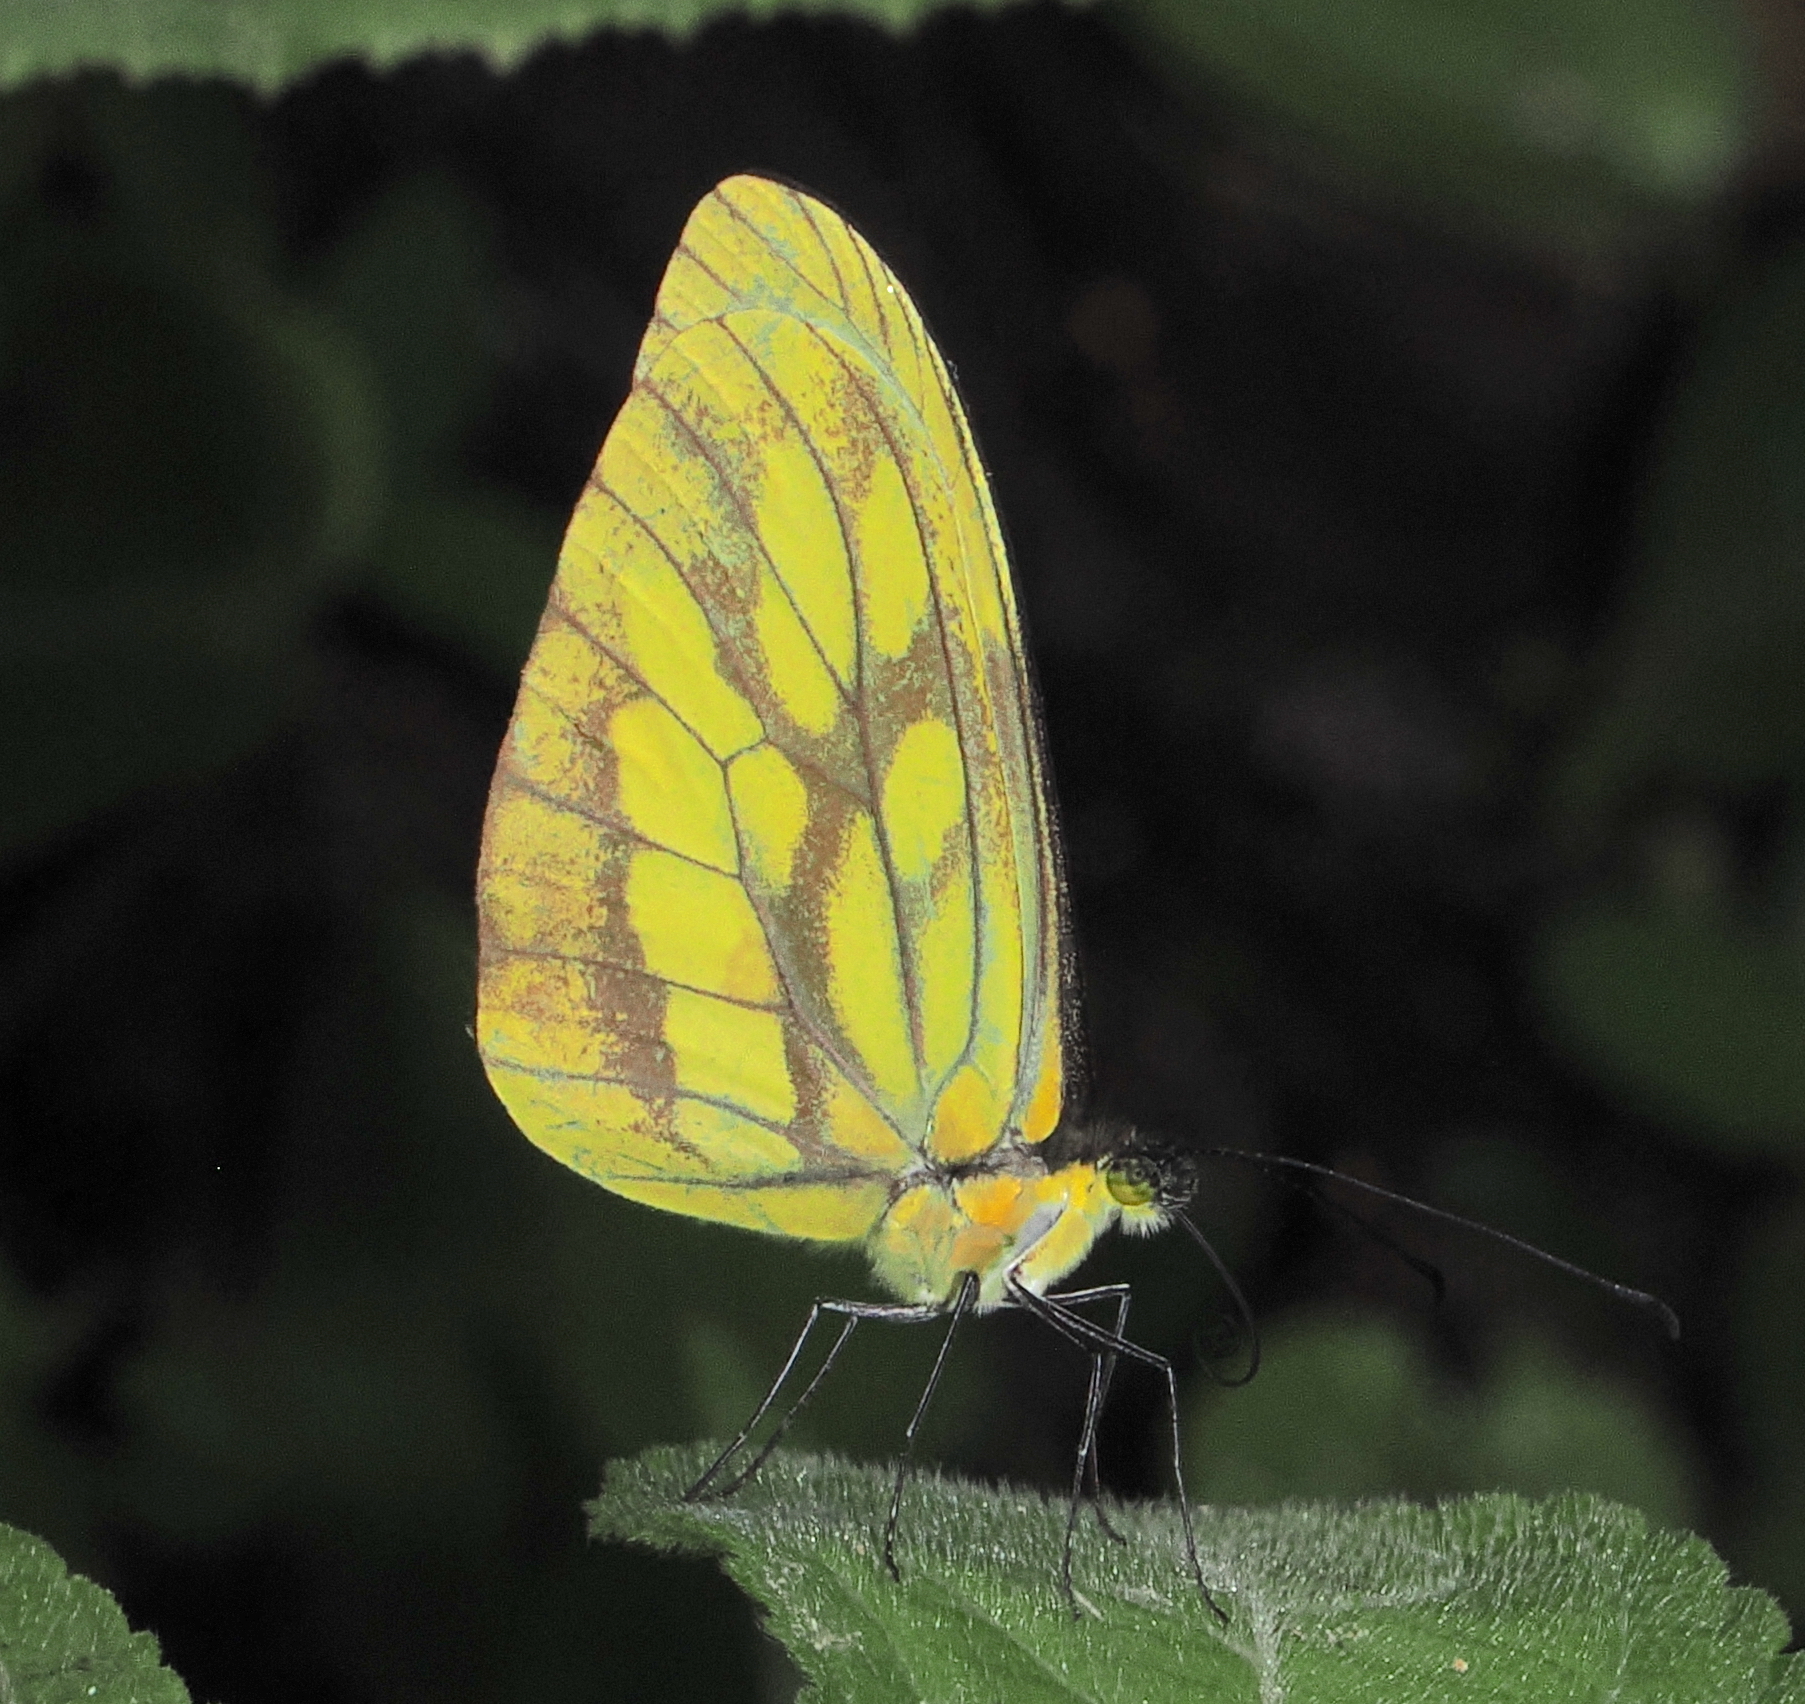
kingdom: Animalia
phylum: Arthropoda
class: Insecta
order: Lepidoptera
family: Pieridae
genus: Dismorphia
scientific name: Dismorphia lua
